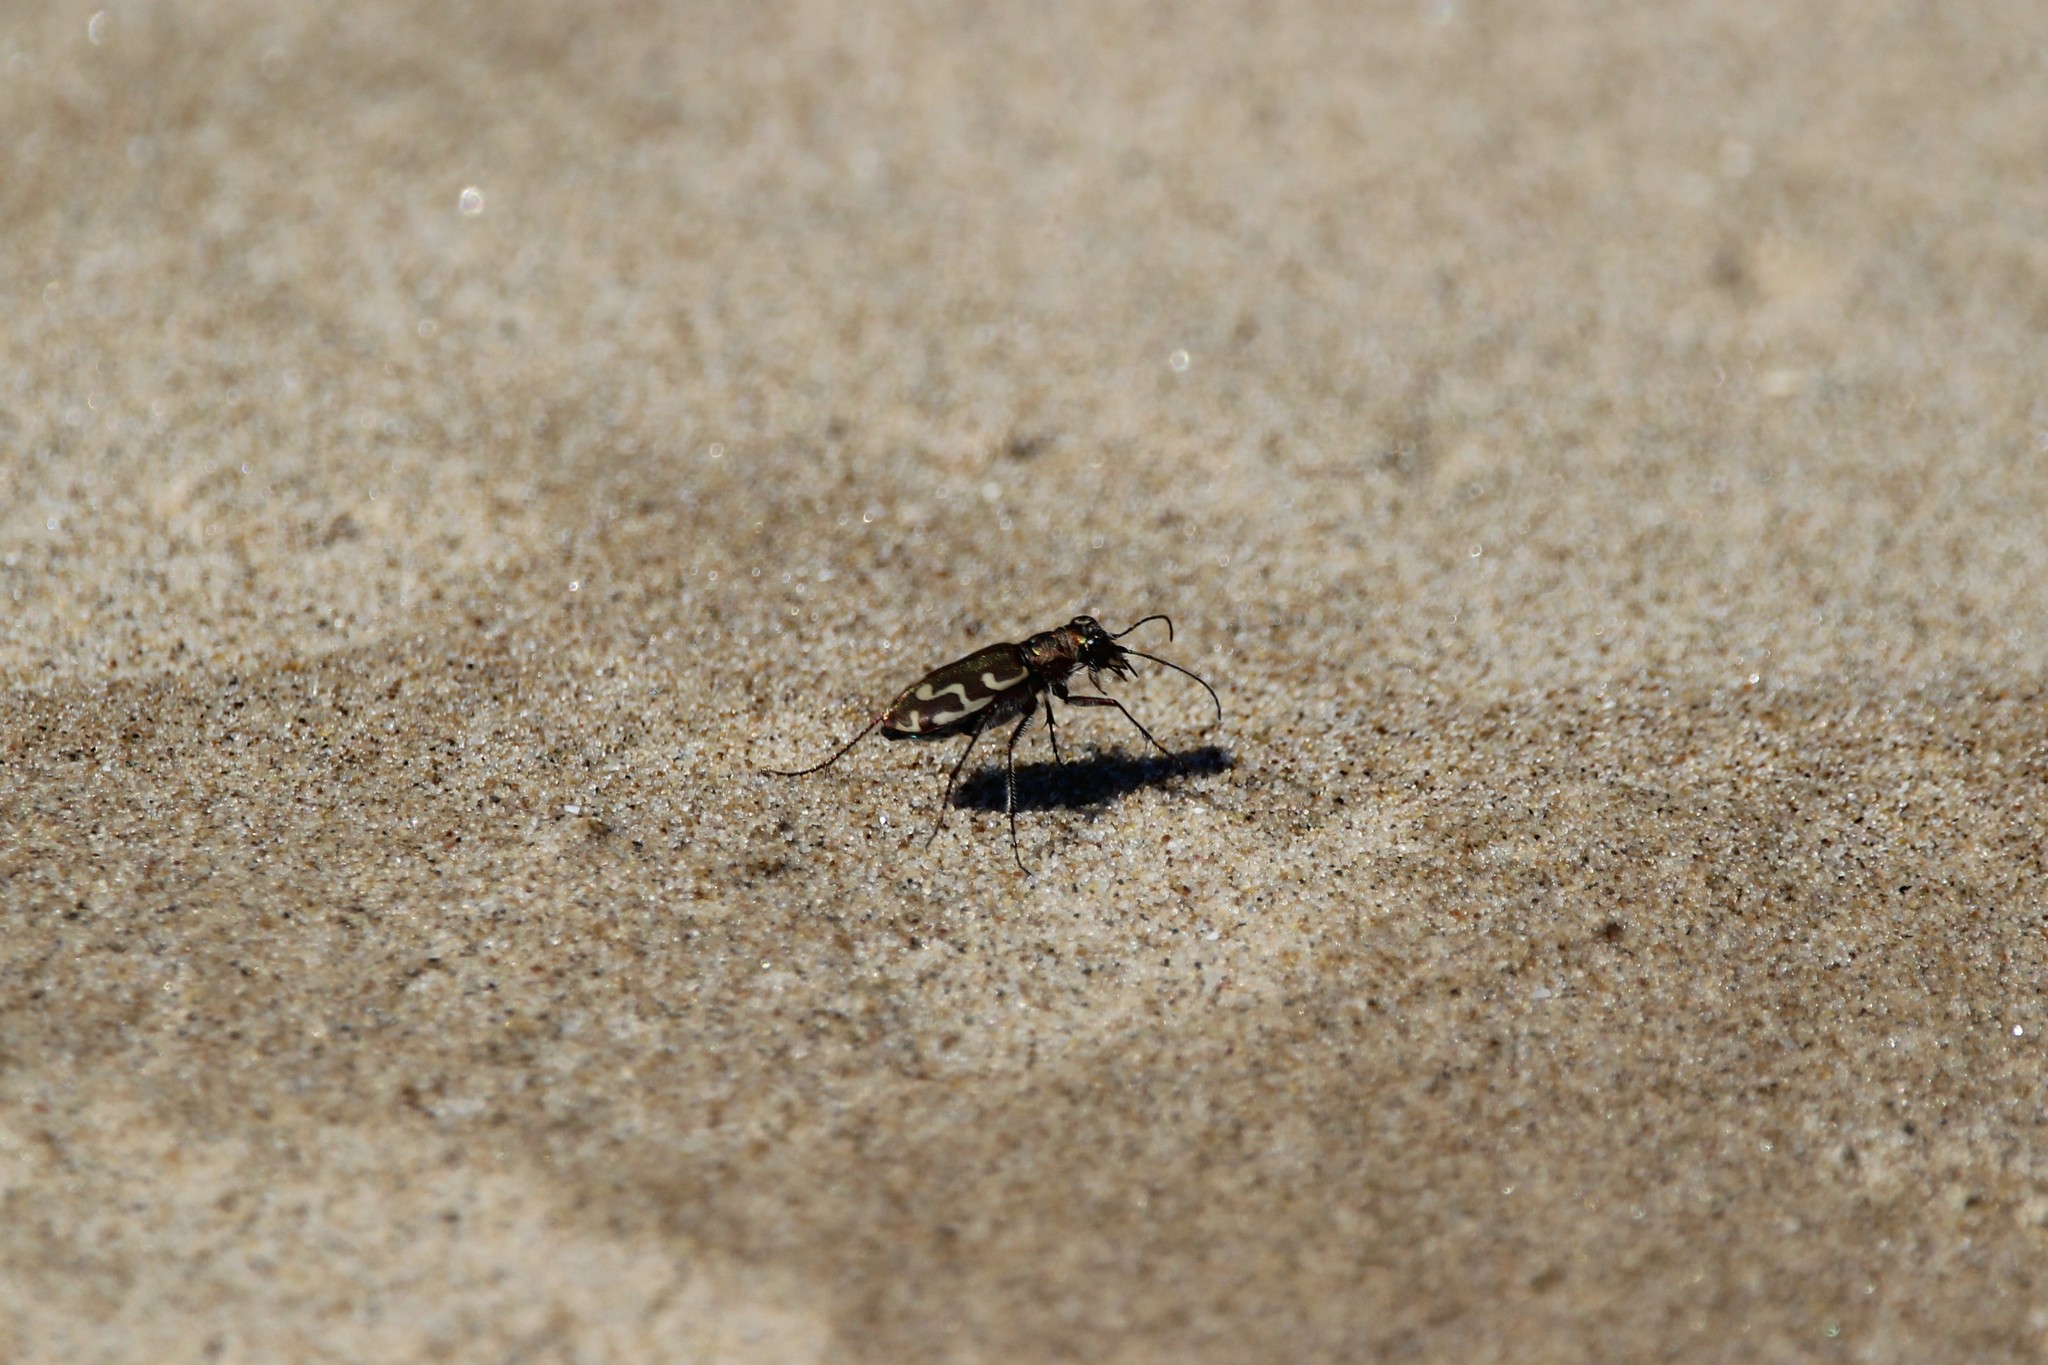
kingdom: Animalia
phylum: Arthropoda
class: Insecta
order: Coleoptera
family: Carabidae
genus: Cicindela
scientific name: Cicindela repanda
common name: Bronzed tiger beetle
